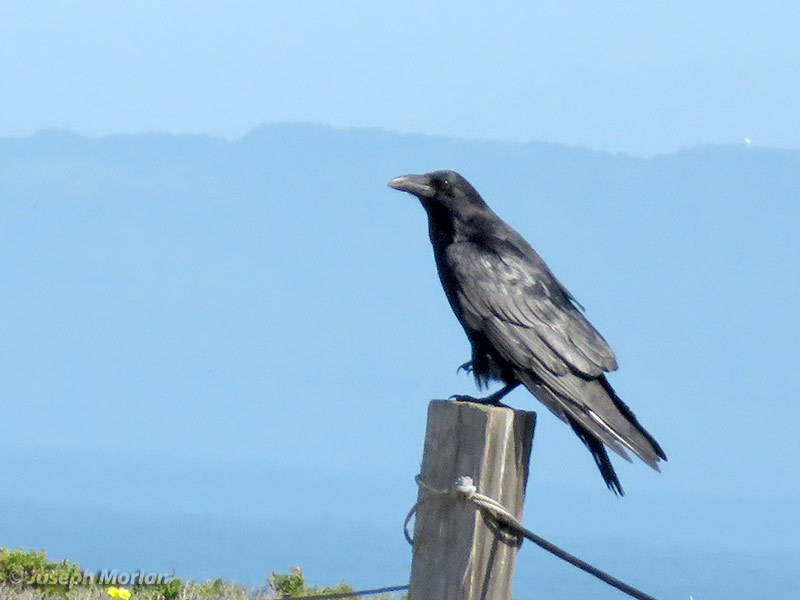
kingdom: Animalia
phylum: Chordata
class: Aves
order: Passeriformes
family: Corvidae
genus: Corvus
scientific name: Corvus corax
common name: Common raven
